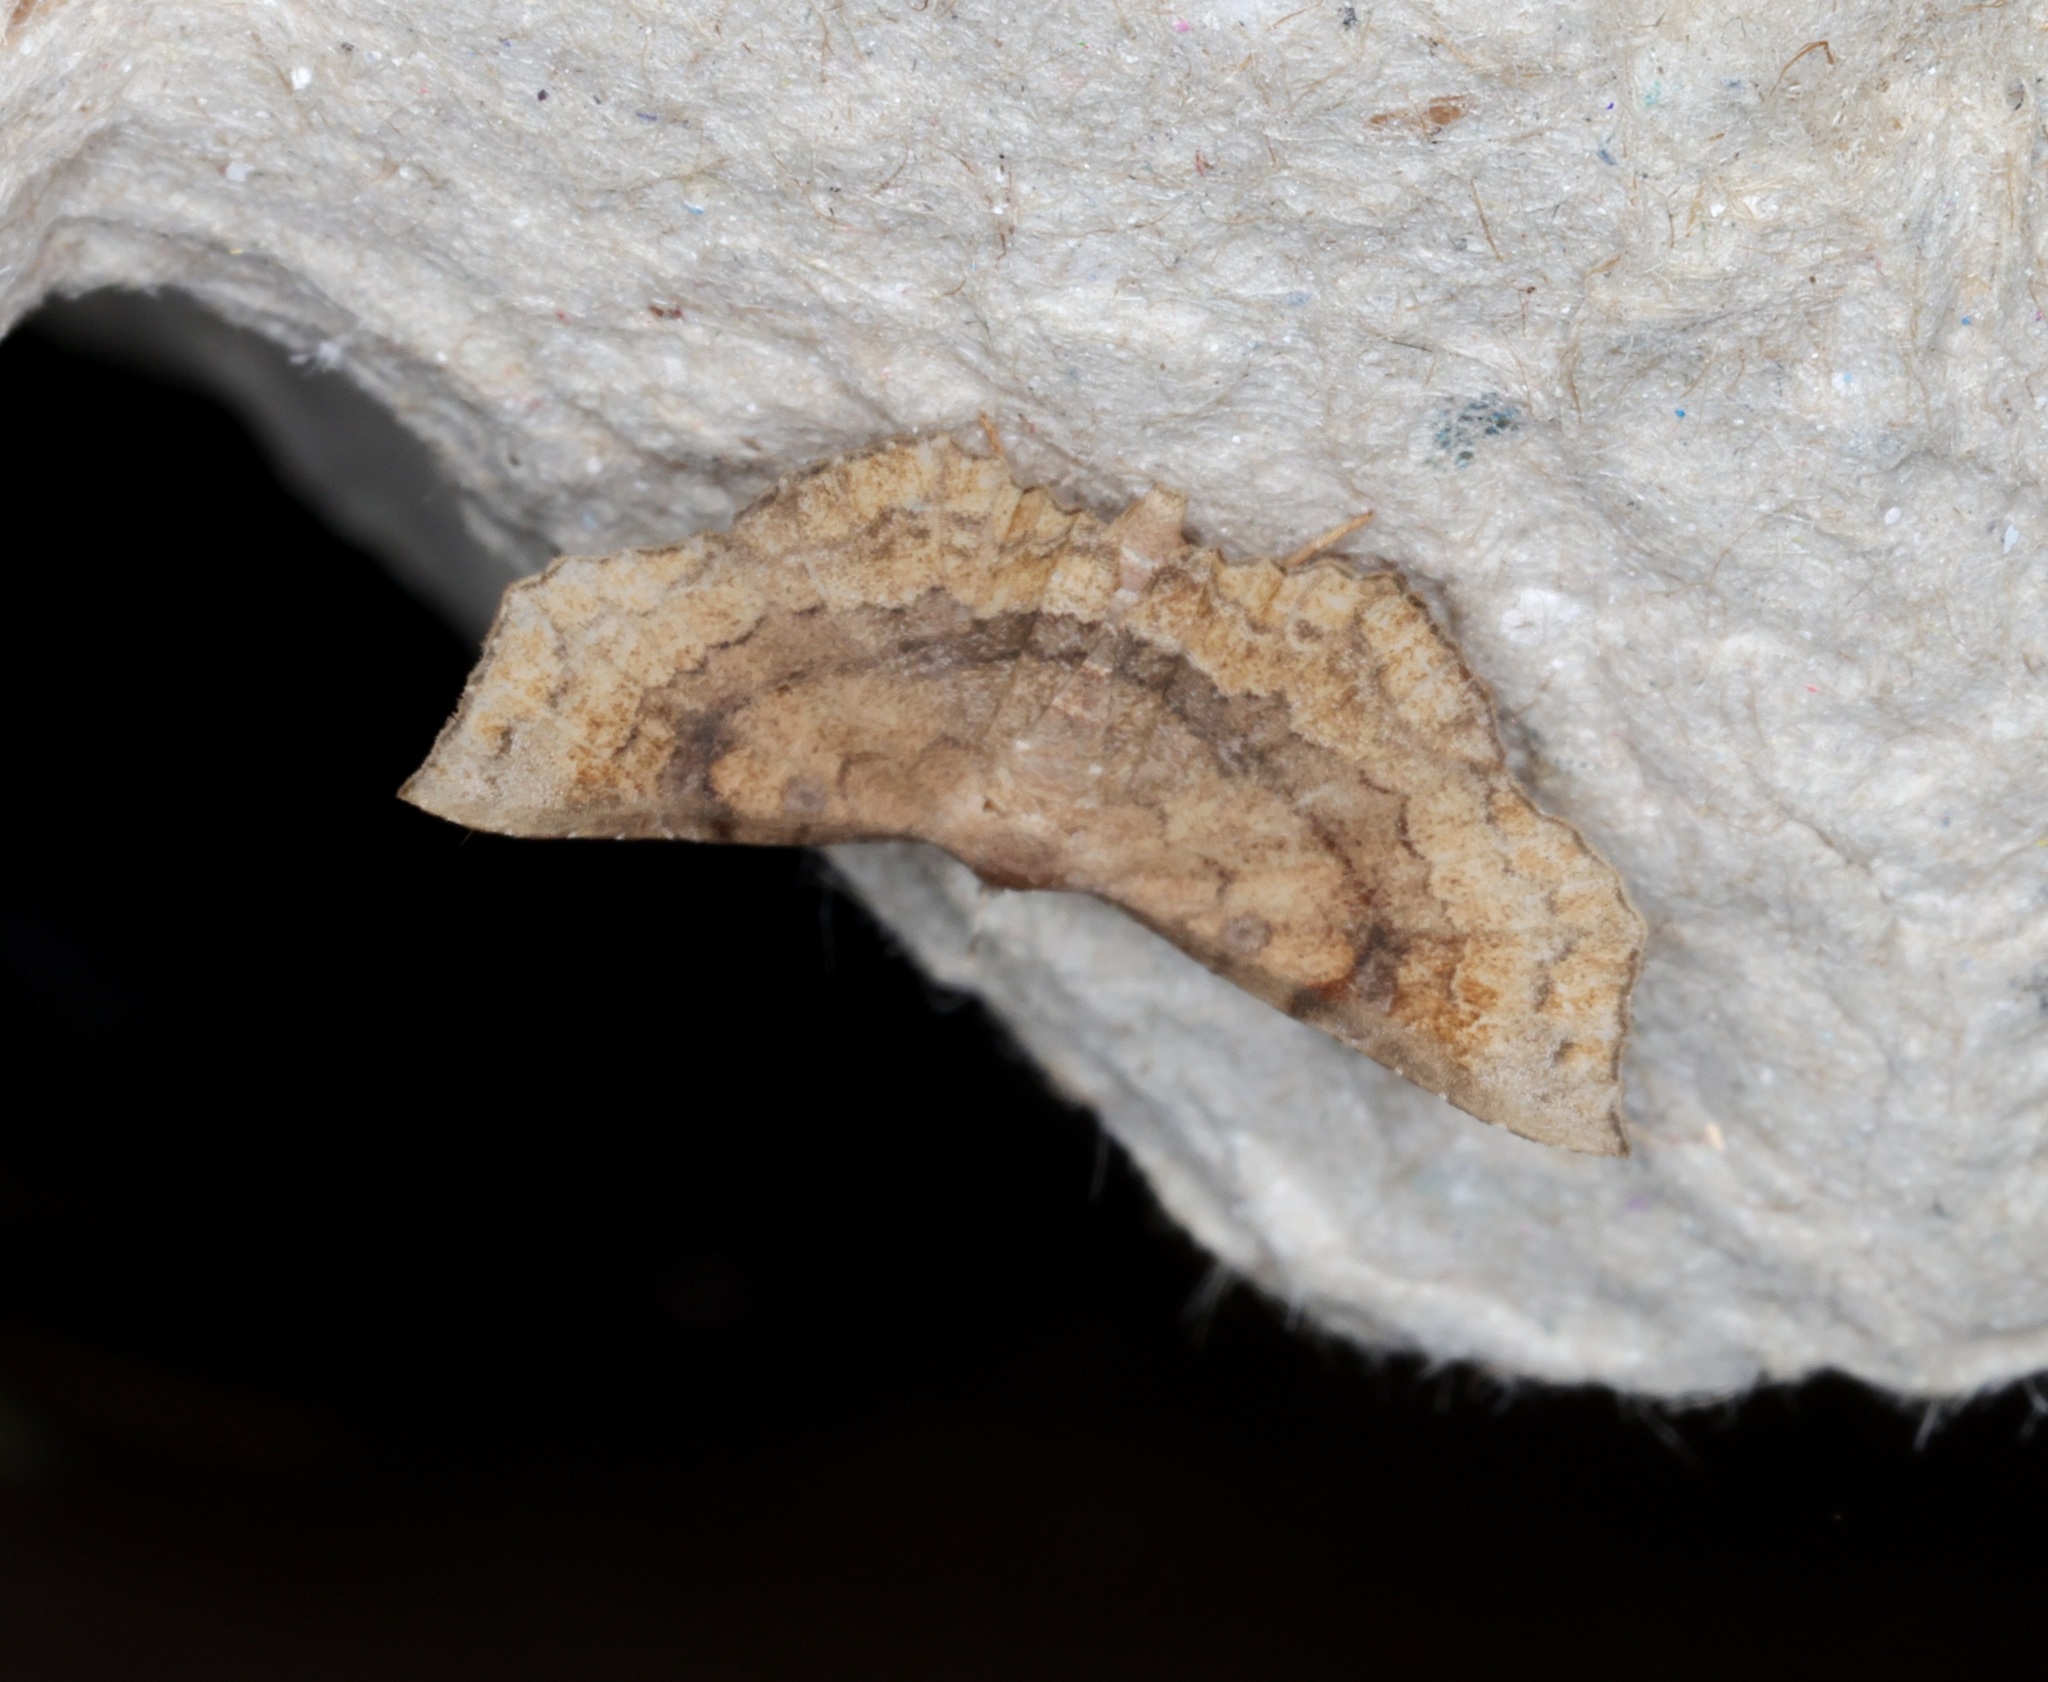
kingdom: Animalia
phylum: Arthropoda
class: Insecta
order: Lepidoptera
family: Erebidae
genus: Throana
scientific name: Throana pectinifer
